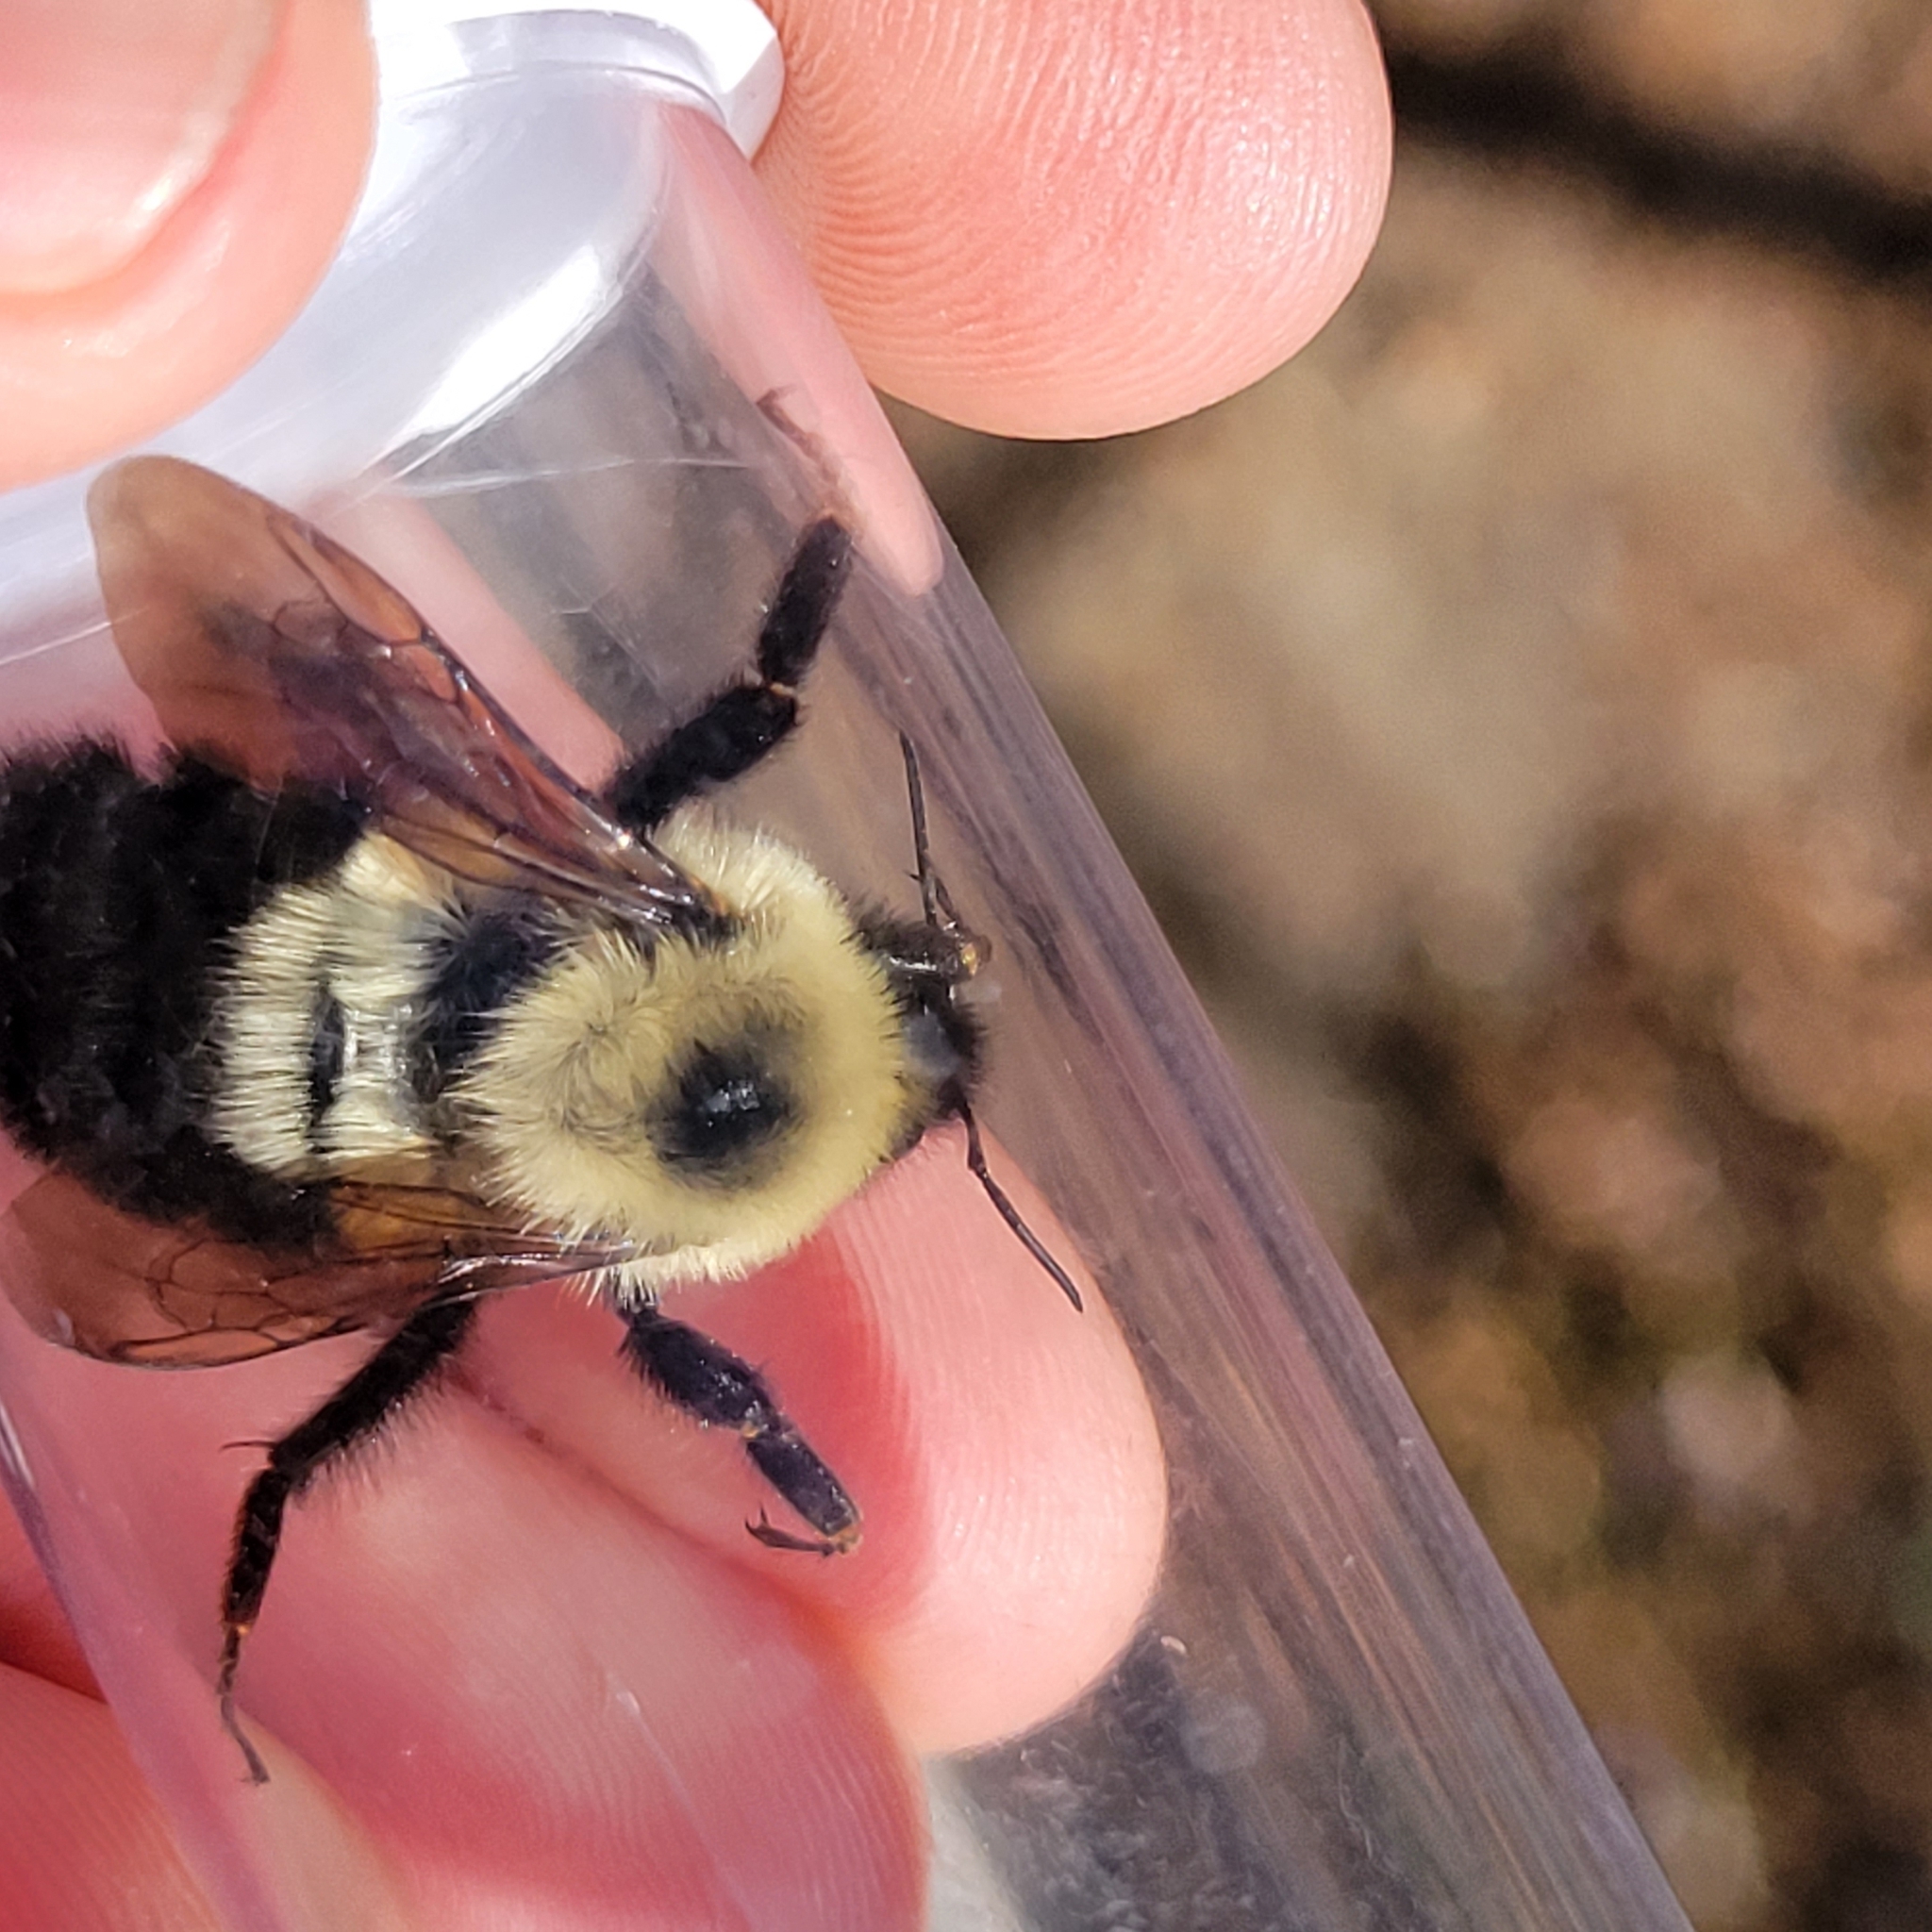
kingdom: Animalia
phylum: Arthropoda
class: Insecta
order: Hymenoptera
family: Apidae
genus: Bombus
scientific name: Bombus bimaculatus
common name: Two-spotted bumble bee
